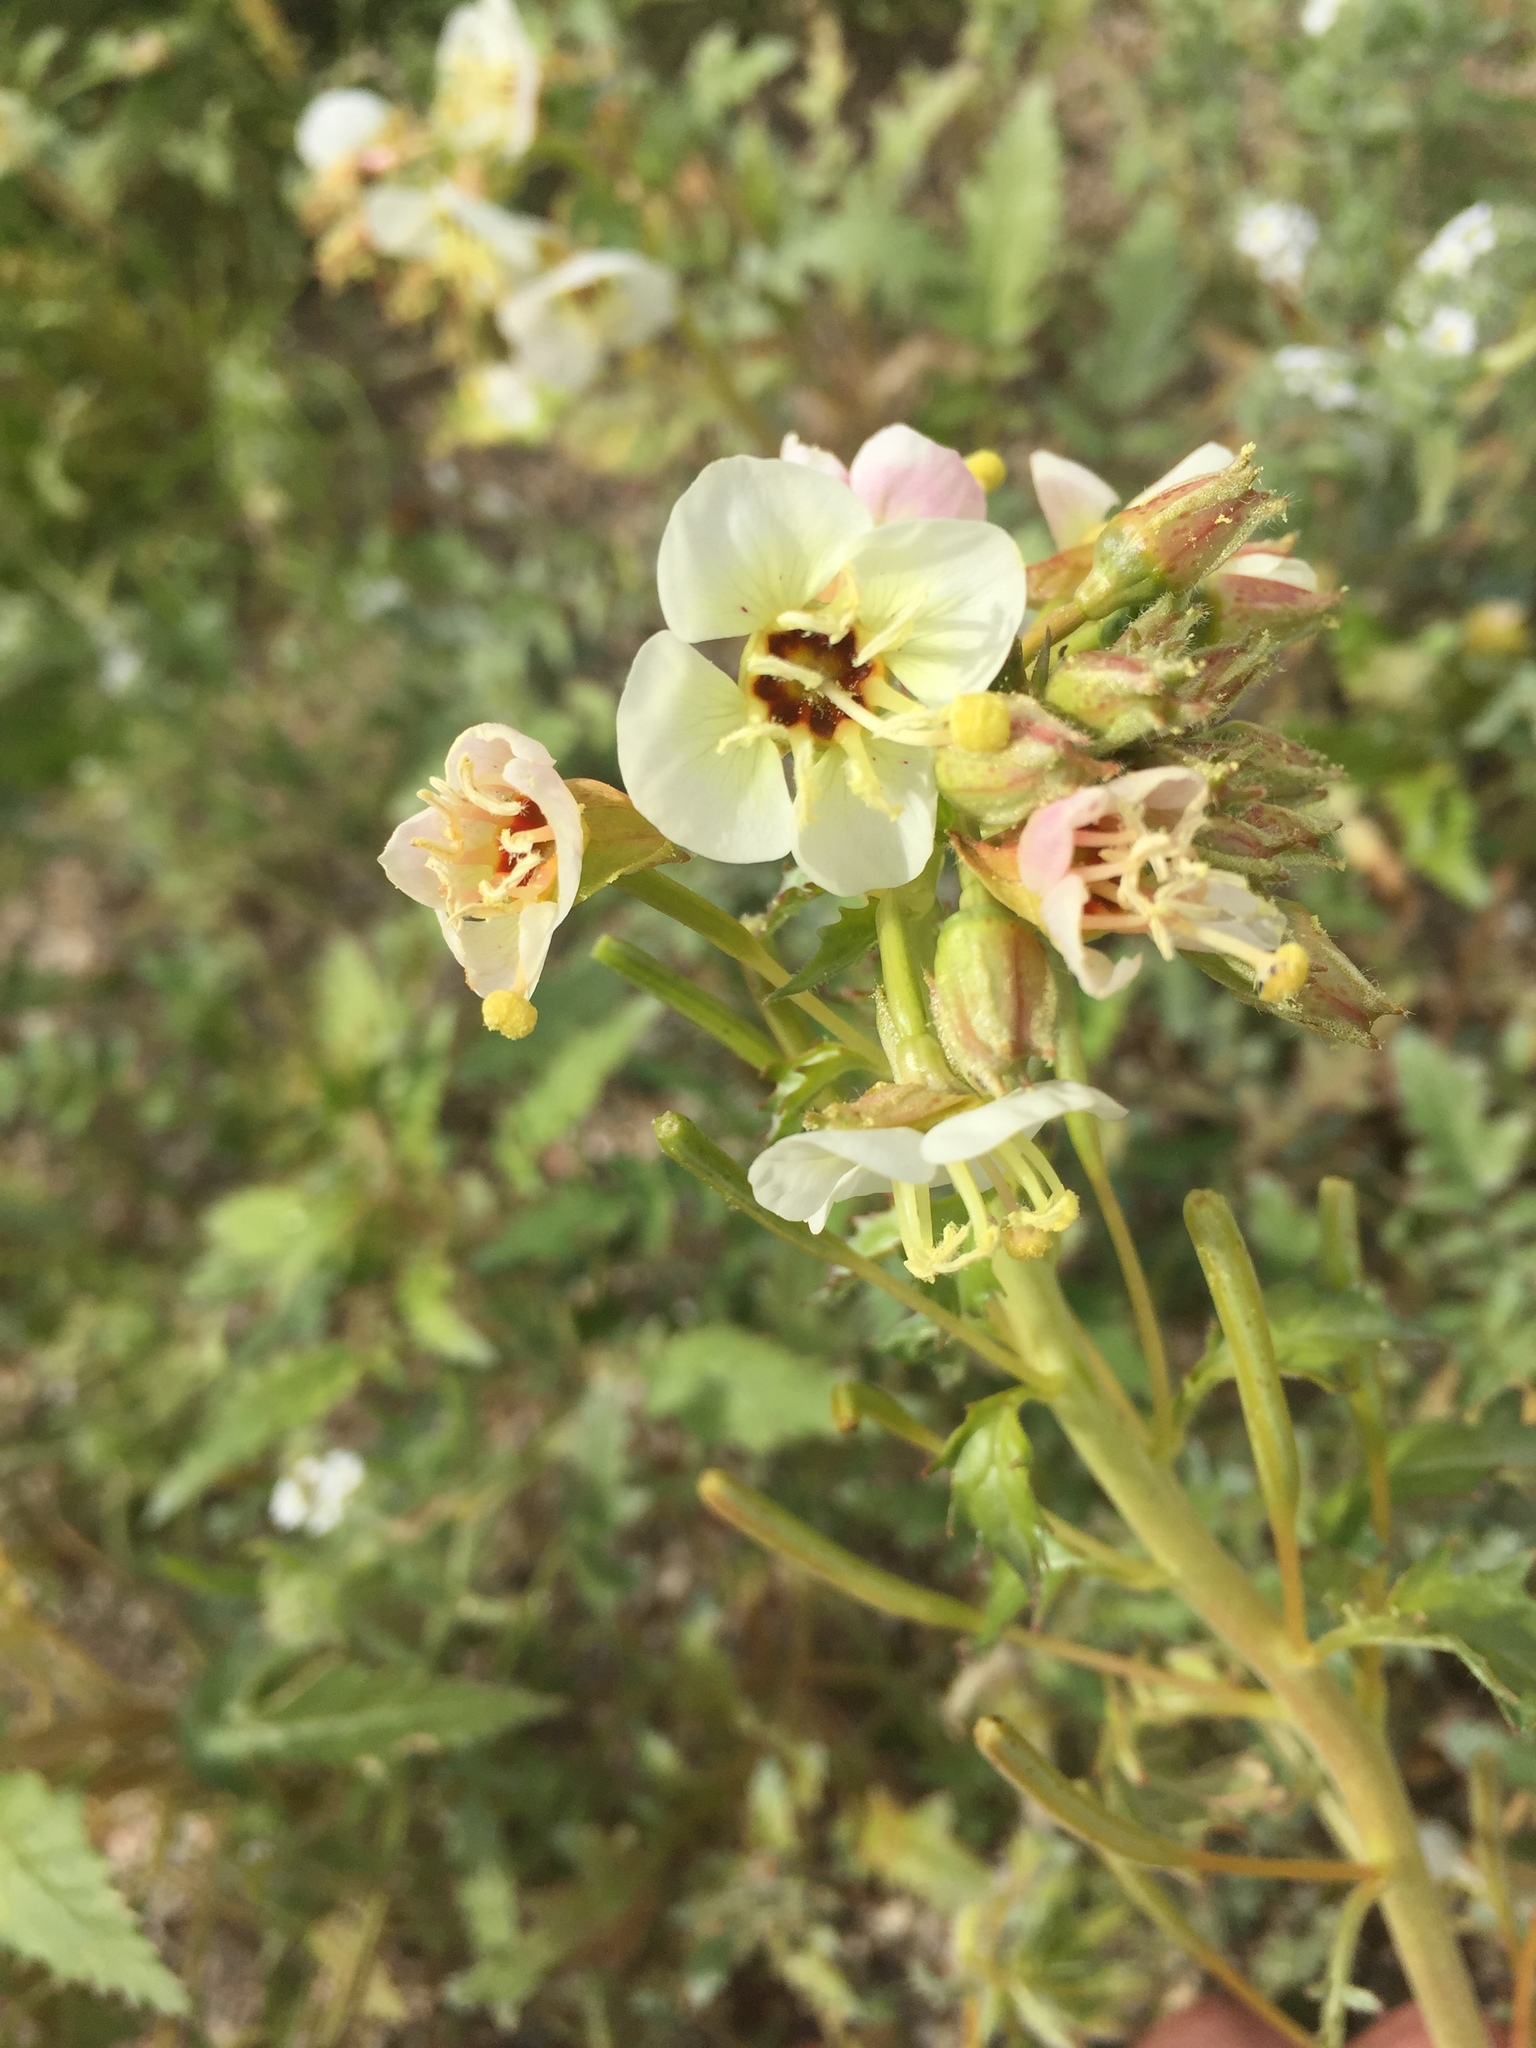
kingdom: Plantae
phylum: Tracheophyta
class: Magnoliopsida
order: Myrtales
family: Onagraceae
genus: Chylismia
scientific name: Chylismia claviformis
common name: Browneyes
